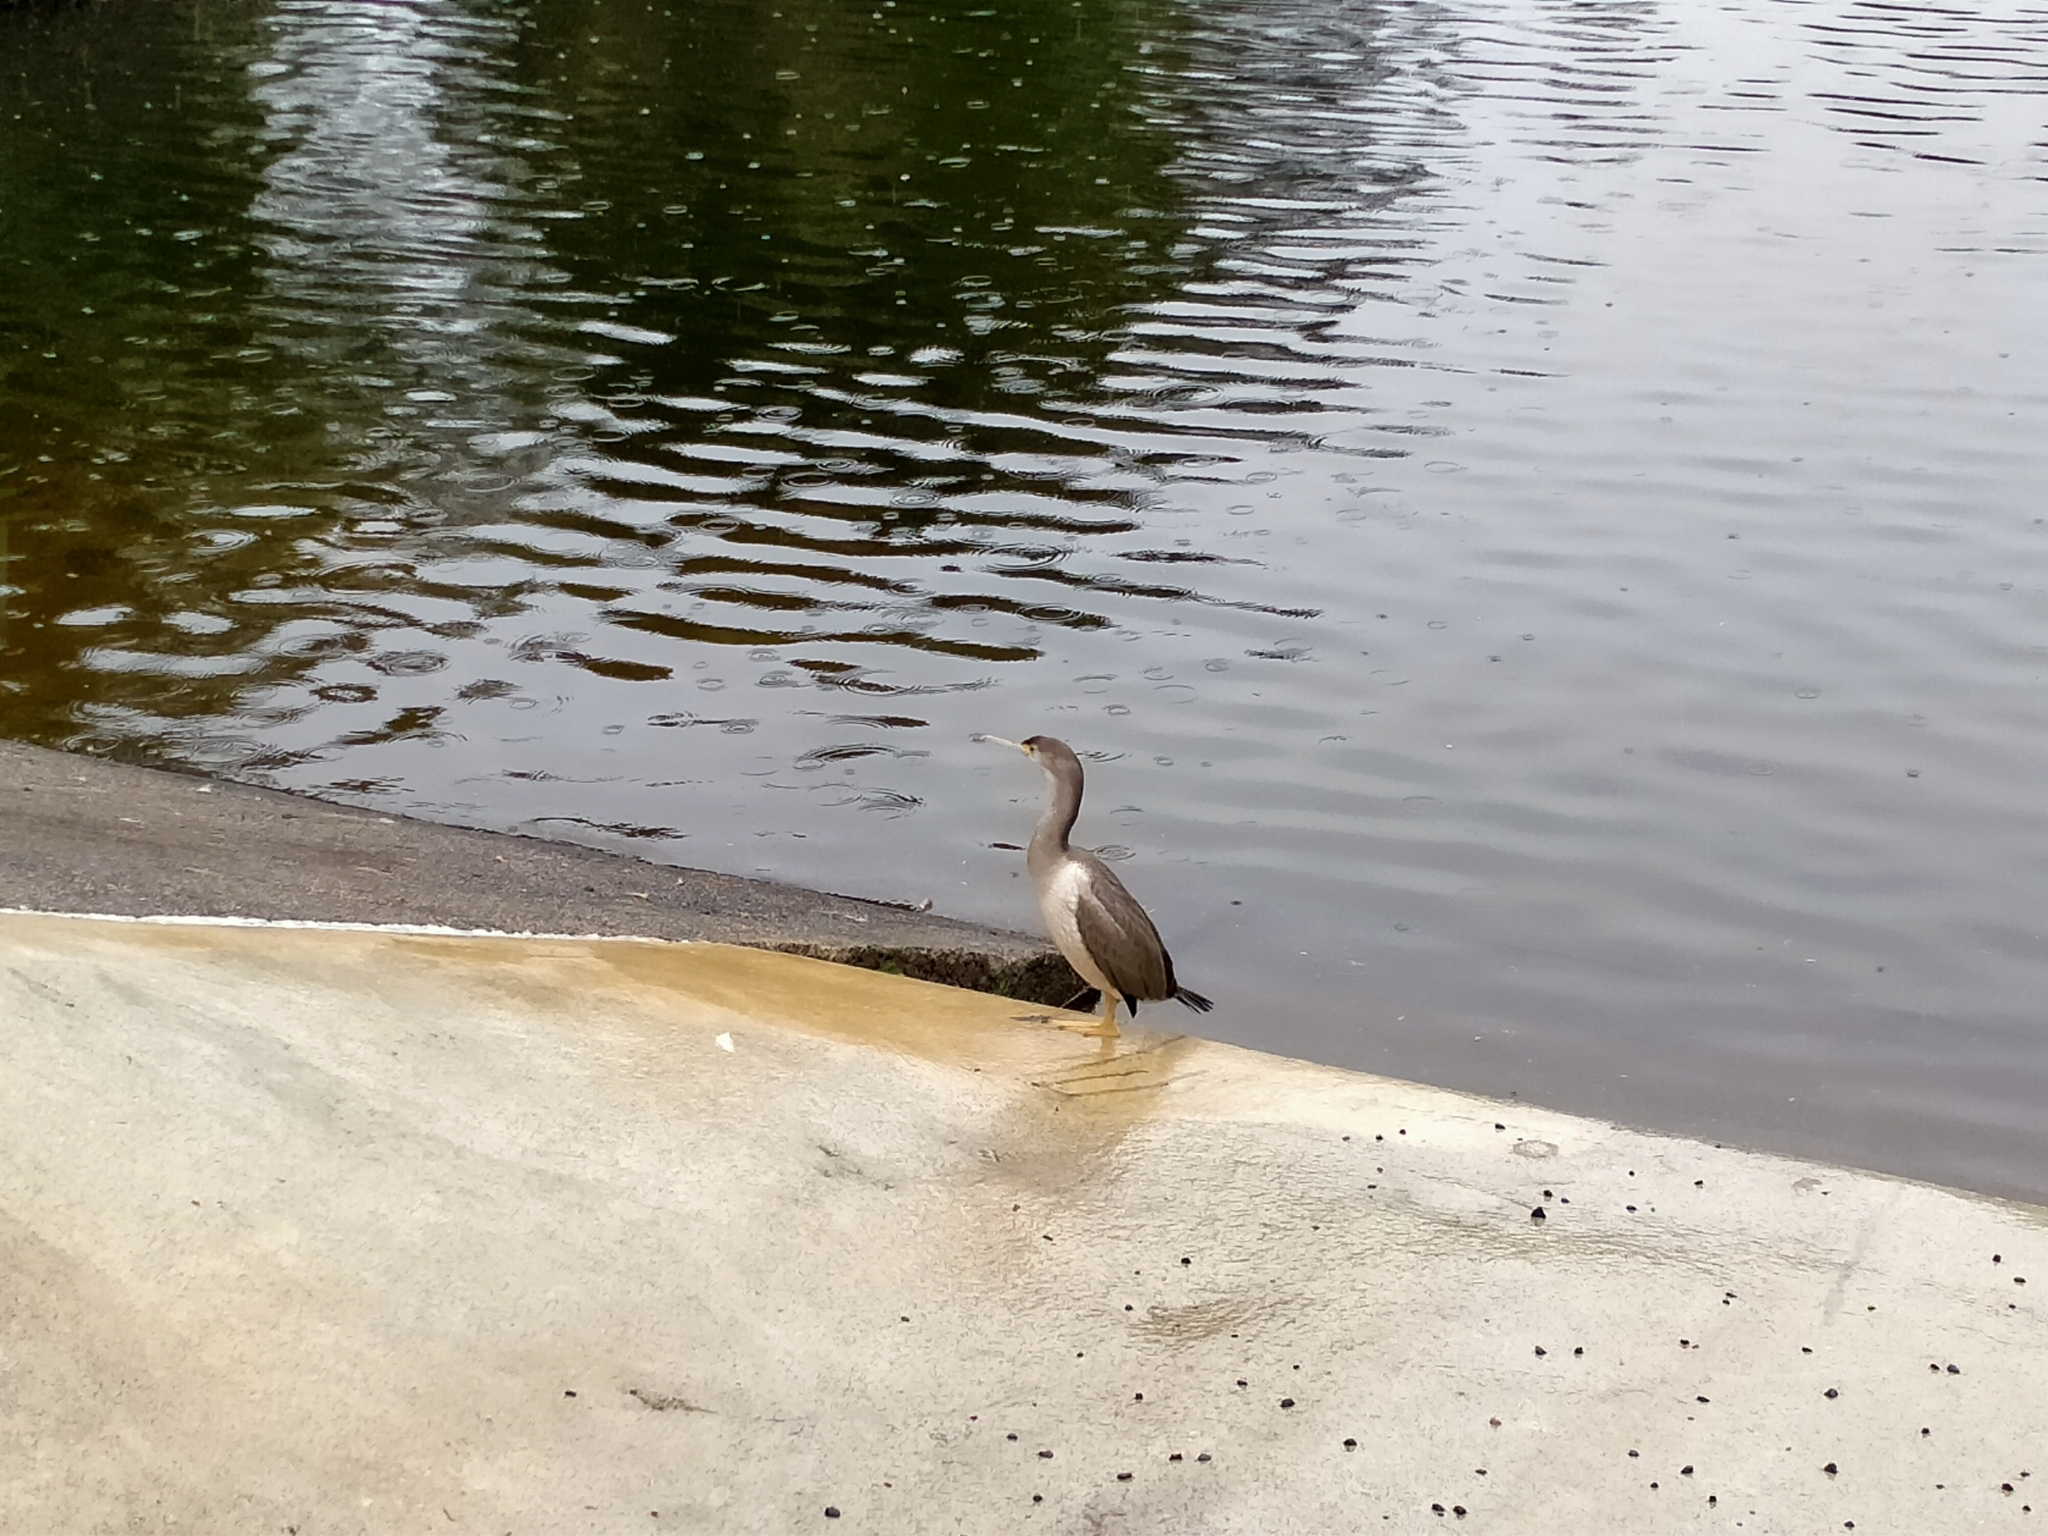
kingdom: Animalia
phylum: Chordata
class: Aves
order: Suliformes
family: Phalacrocoracidae
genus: Phalacrocorax
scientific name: Phalacrocorax punctatus
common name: Spotted shag
